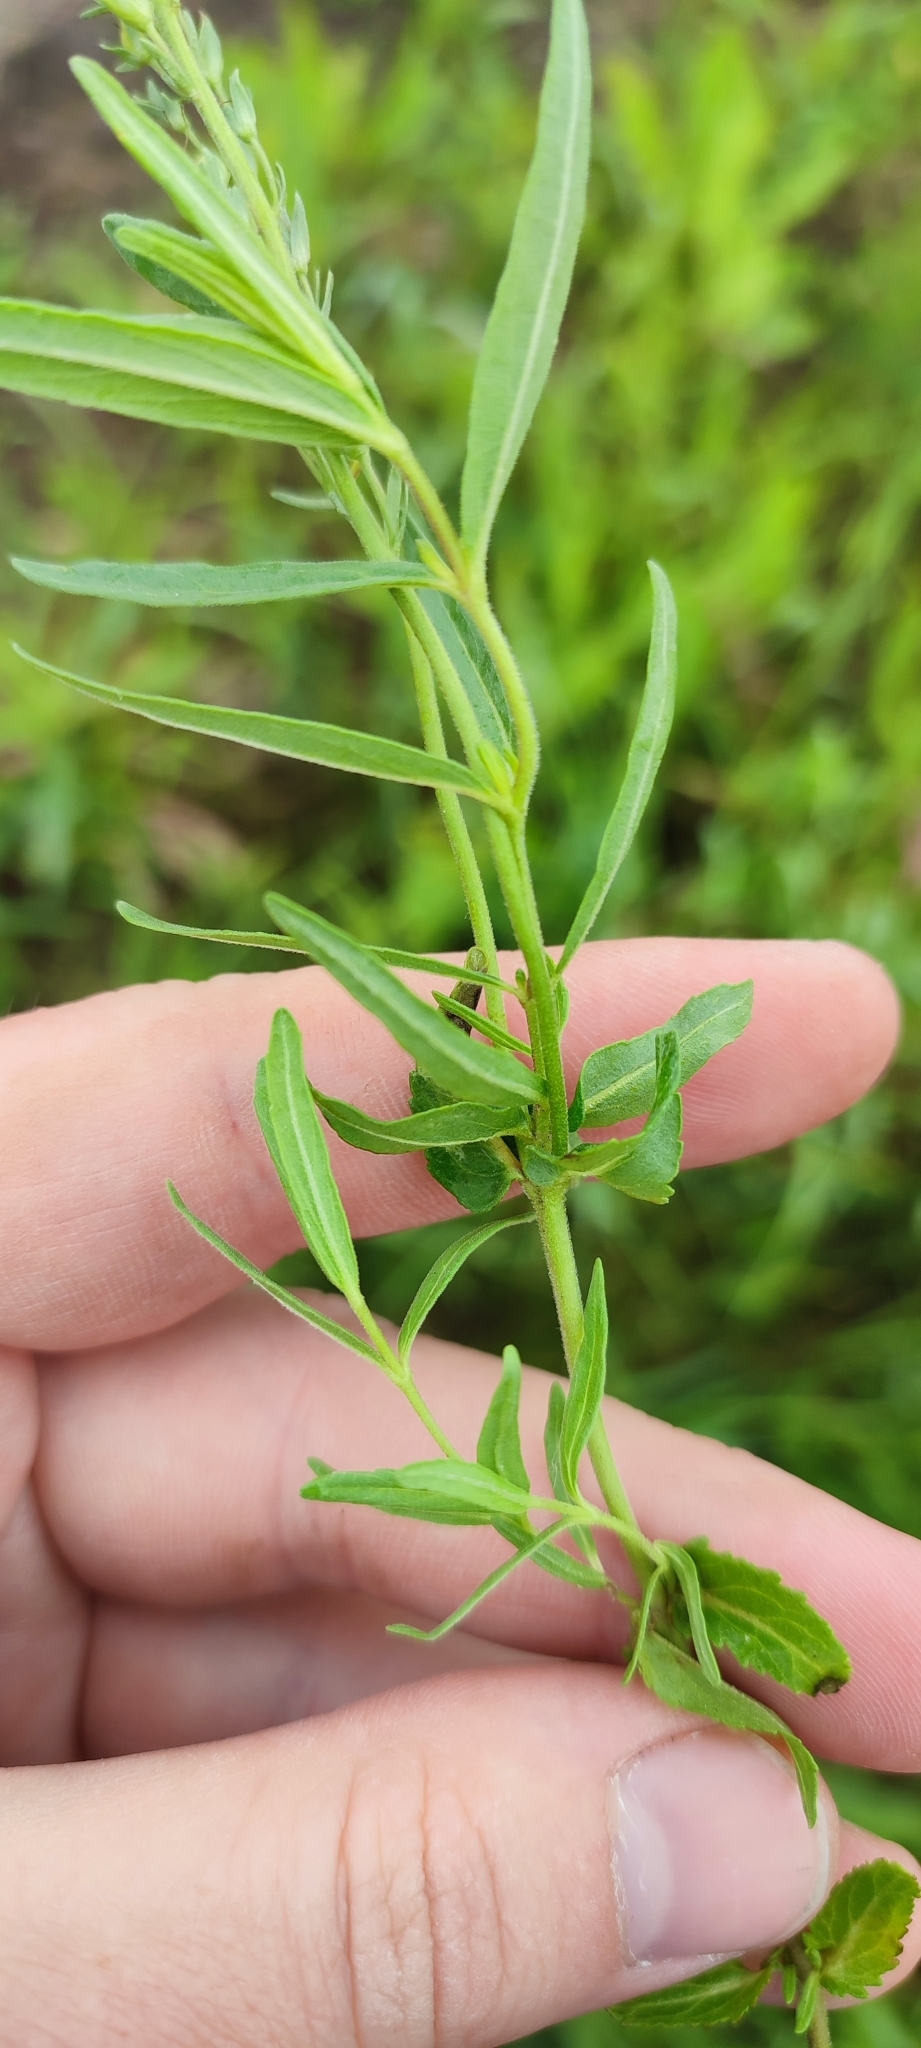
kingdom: Plantae
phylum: Tracheophyta
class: Magnoliopsida
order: Lamiales
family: Plantaginaceae
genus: Veronica
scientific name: Veronica prostrata
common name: Prostrate speedwell
